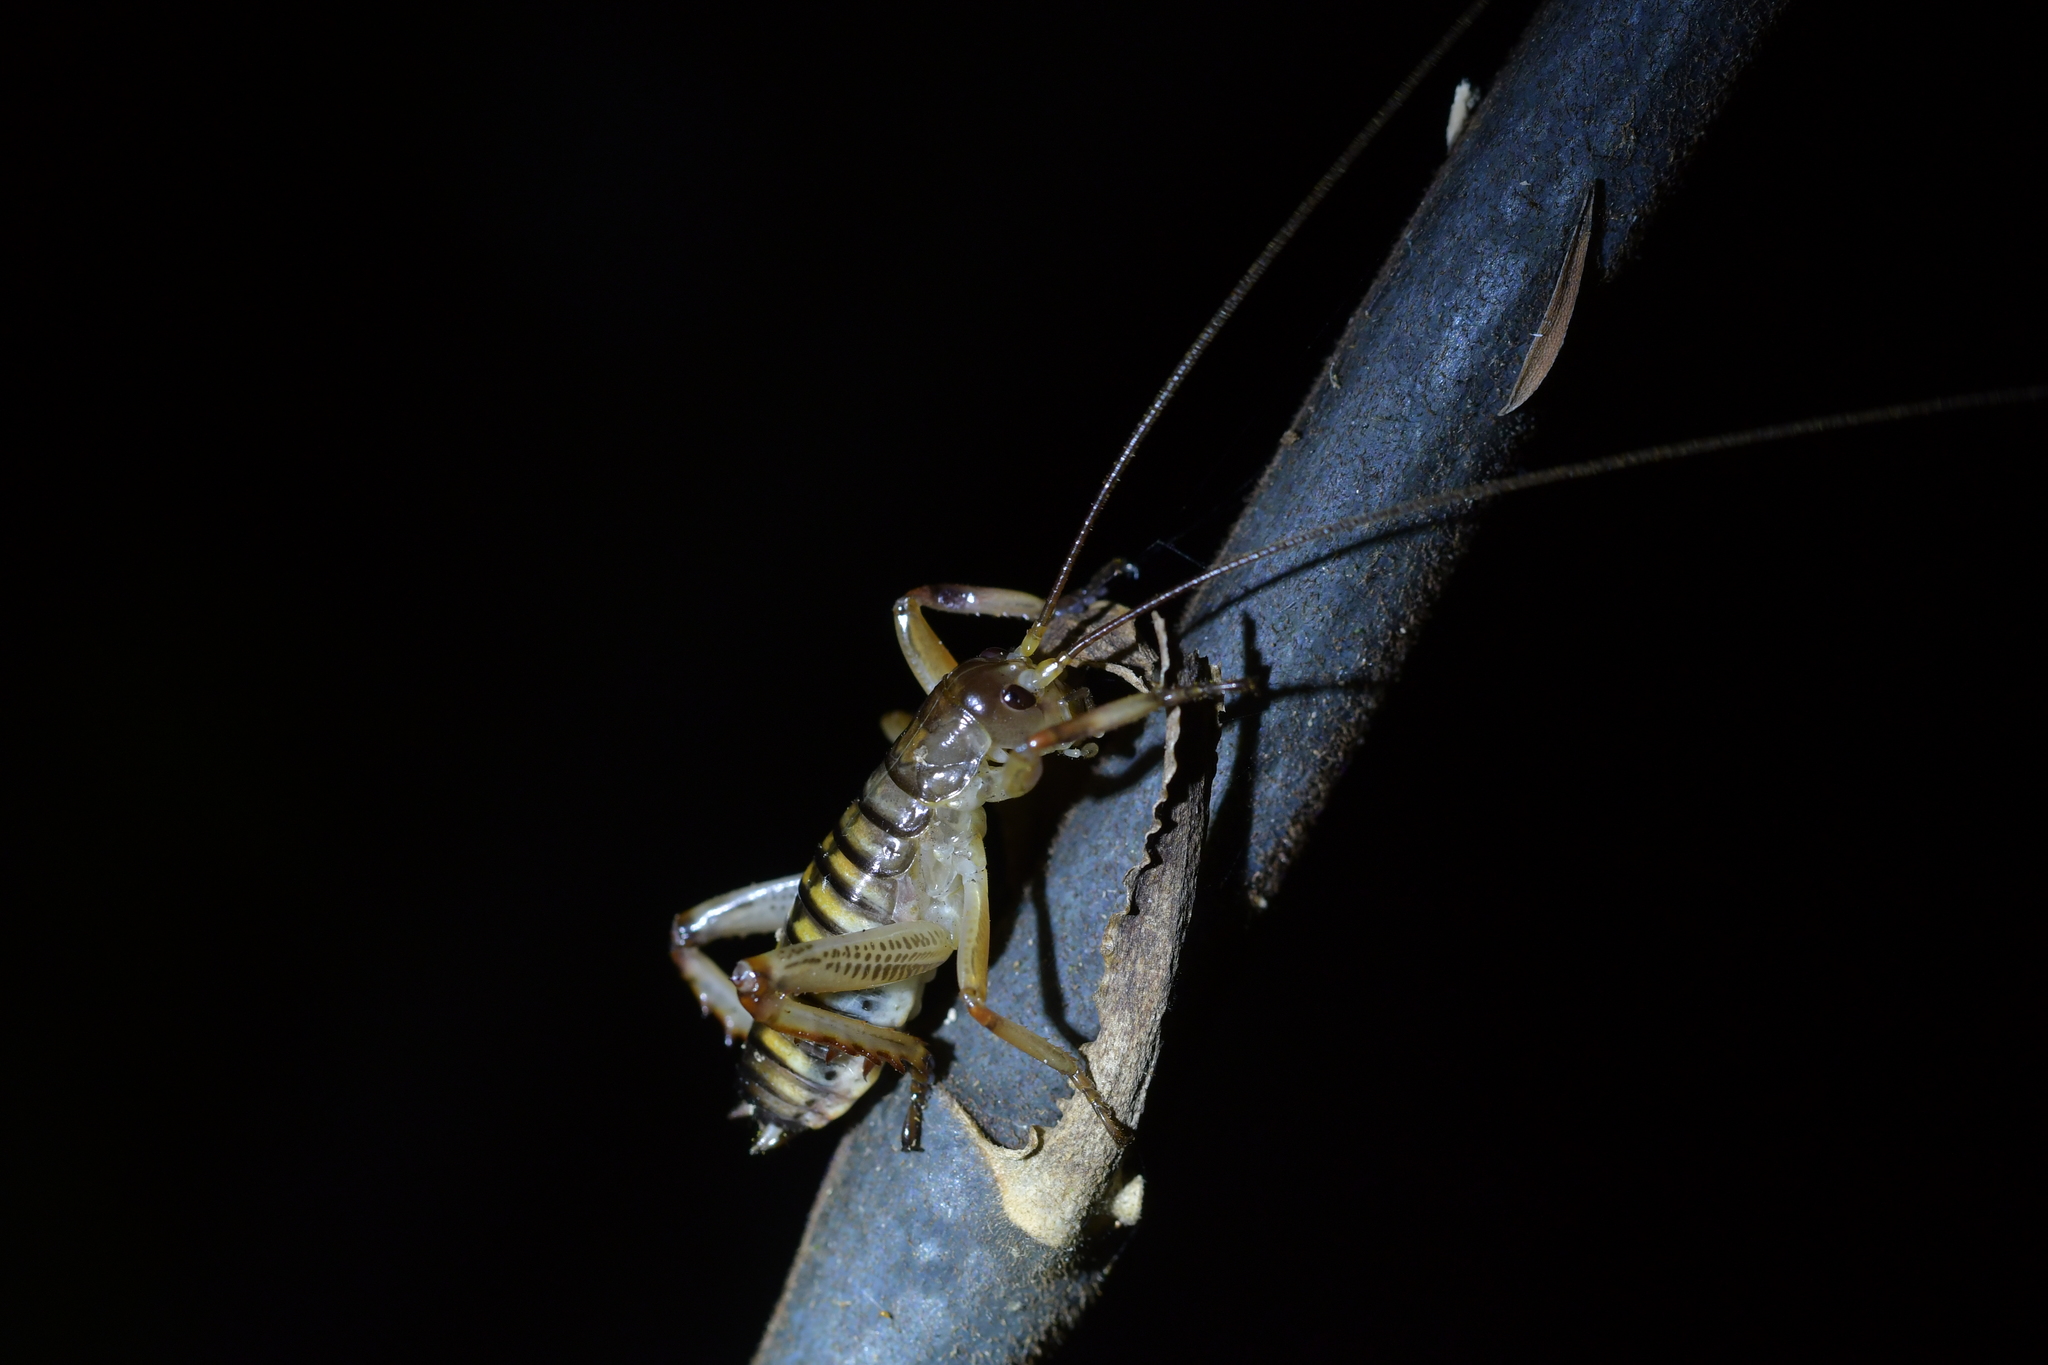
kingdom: Animalia
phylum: Arthropoda
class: Insecta
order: Orthoptera
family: Anostostomatidae
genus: Hemideina
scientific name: Hemideina crassidens
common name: Wellington tree weta
